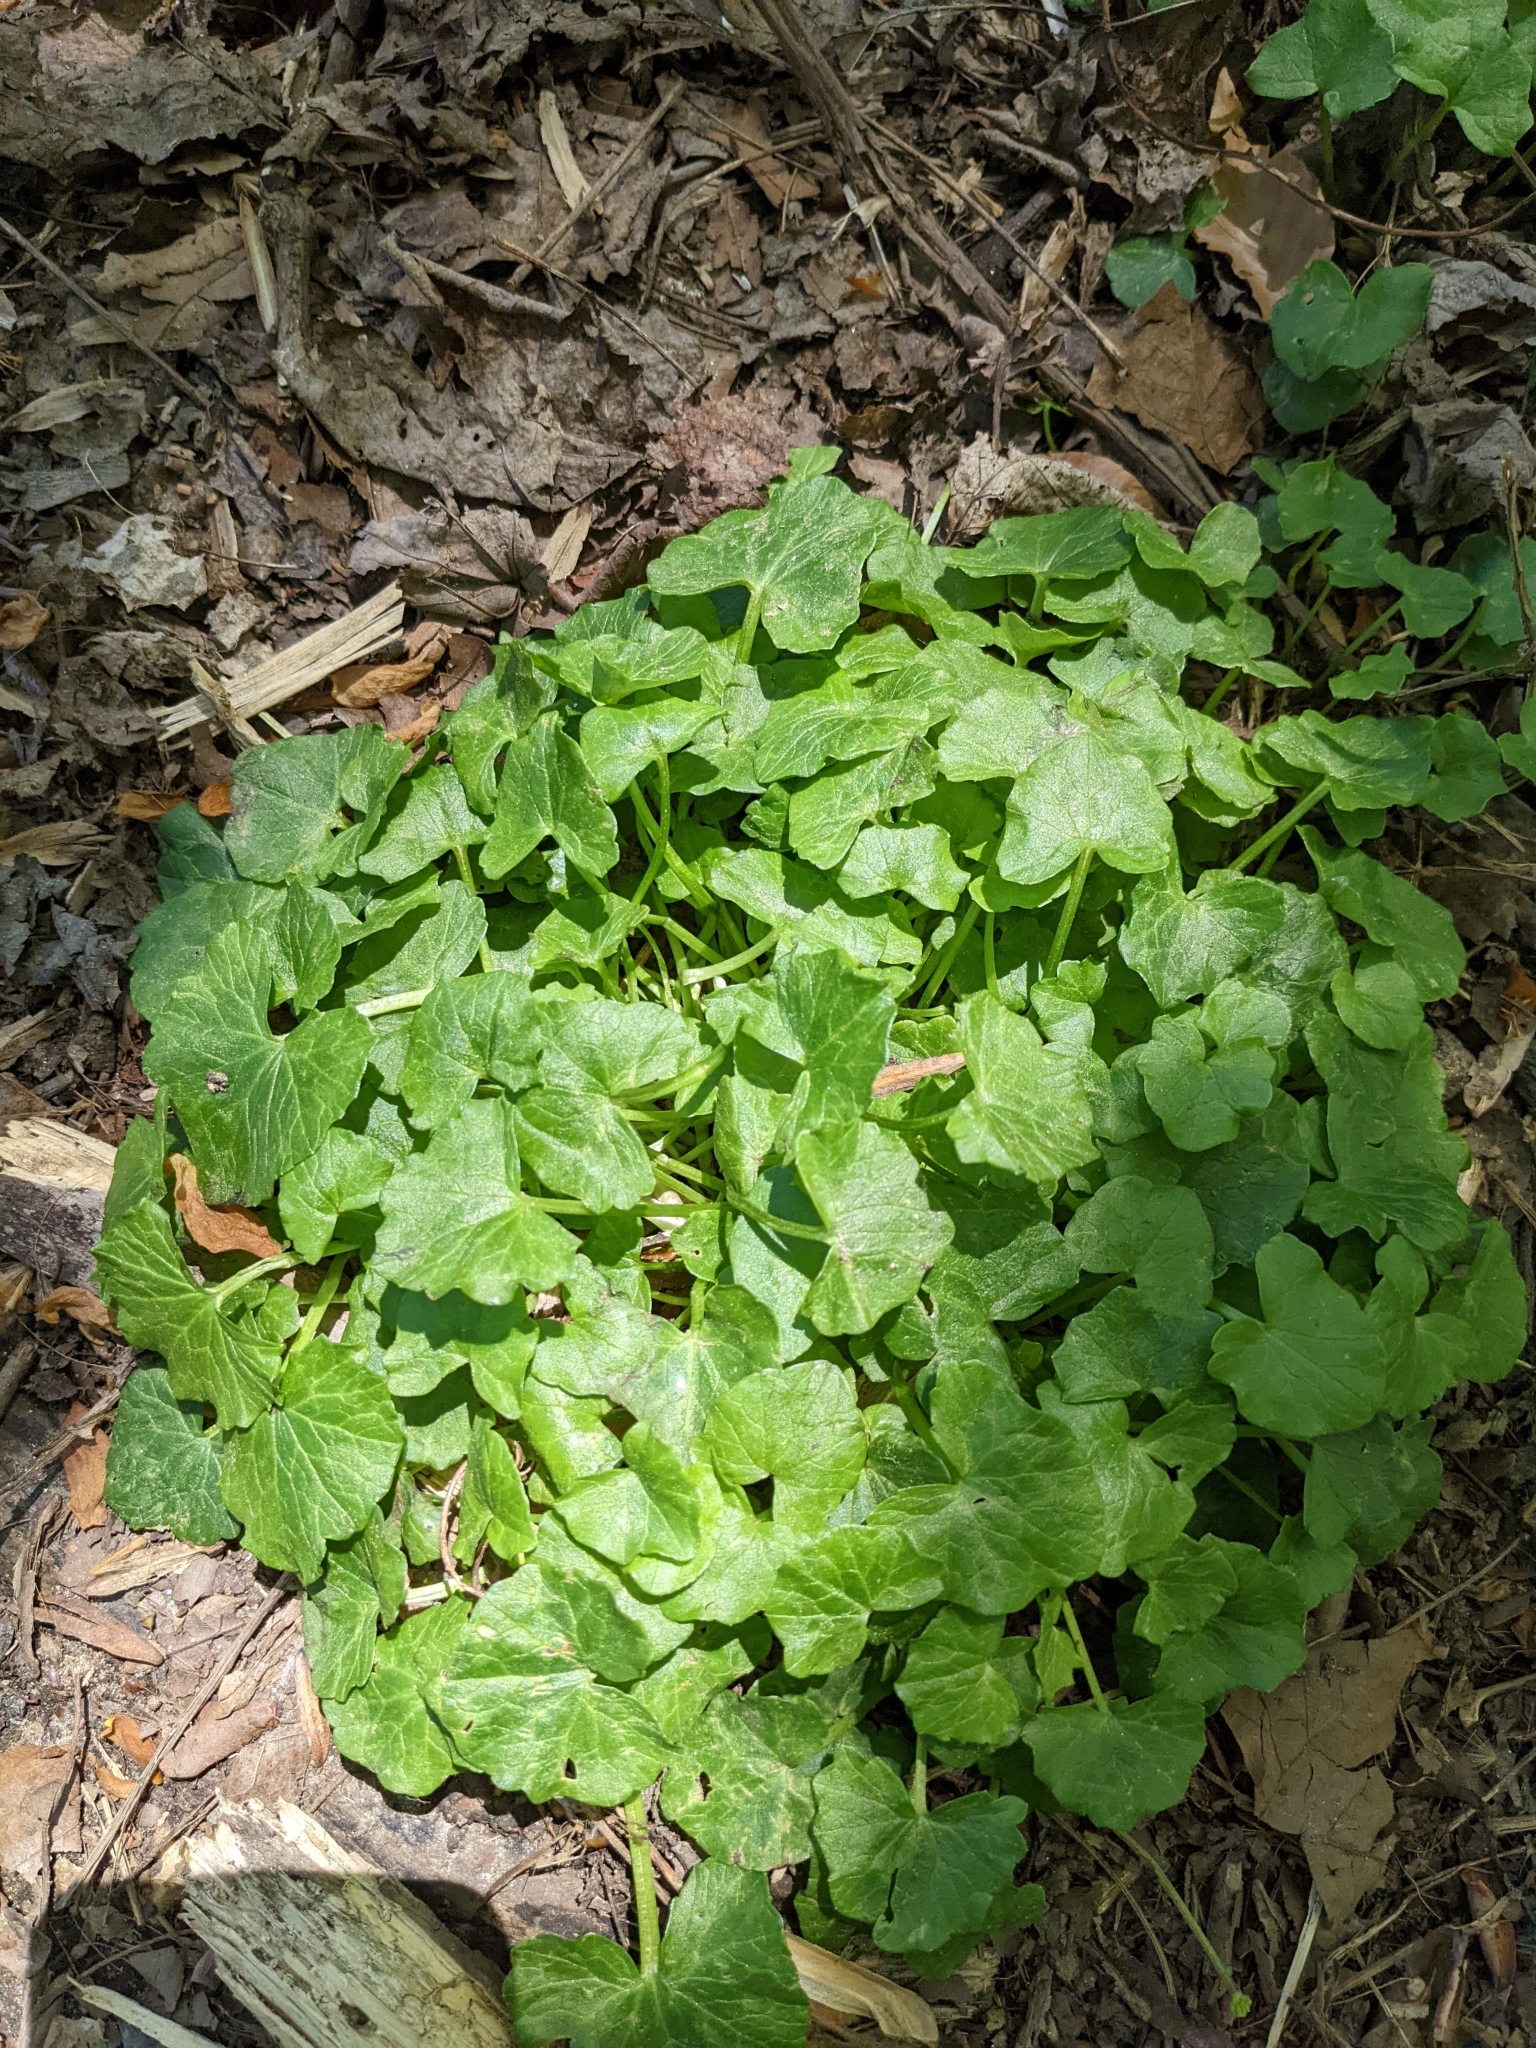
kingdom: Plantae
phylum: Tracheophyta
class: Magnoliopsida
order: Ranunculales
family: Ranunculaceae
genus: Ficaria
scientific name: Ficaria verna
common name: Lesser celandine
